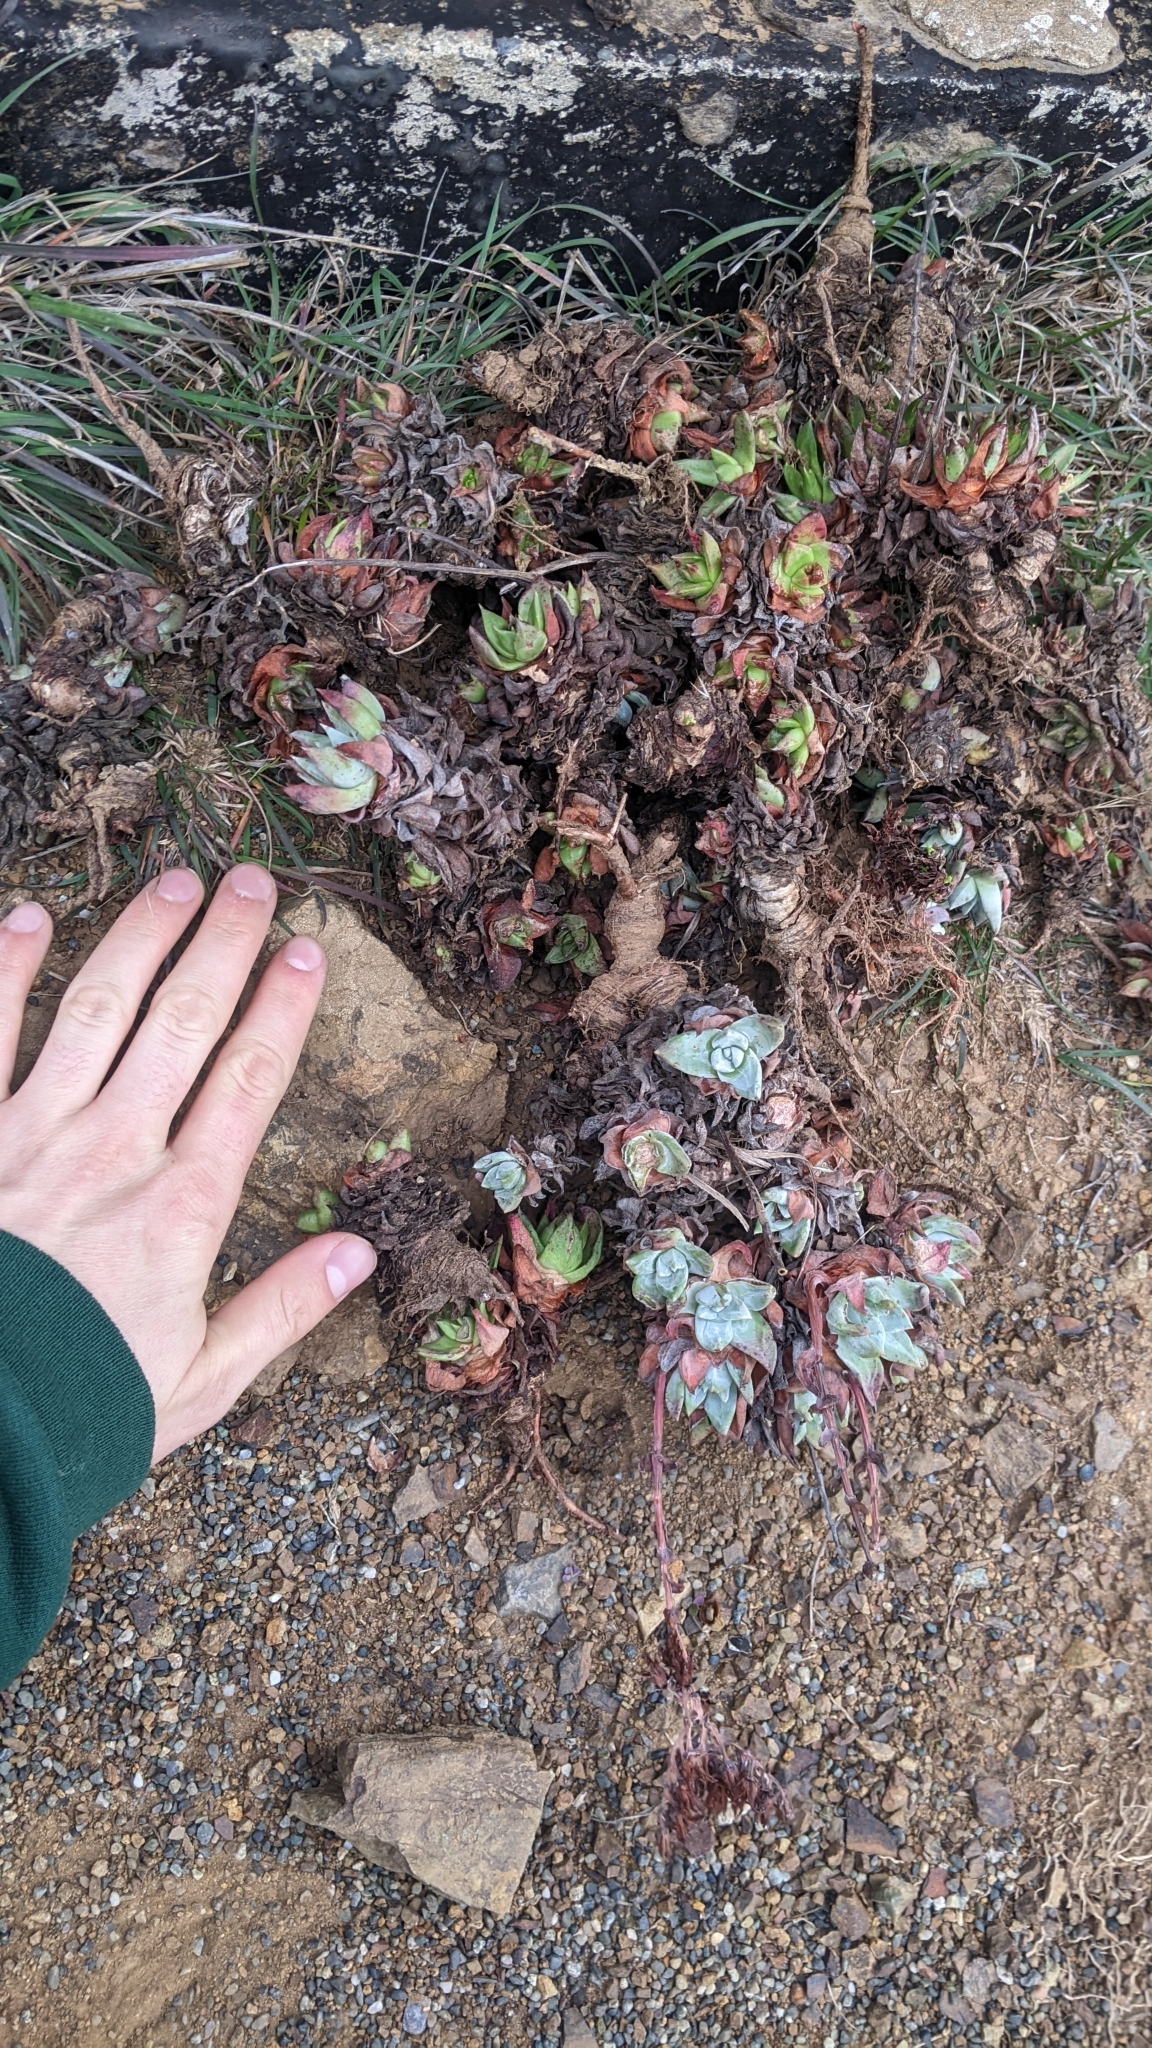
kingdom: Plantae
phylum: Tracheophyta
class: Magnoliopsida
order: Saxifragales
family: Crassulaceae
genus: Dudleya
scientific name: Dudleya farinosa
